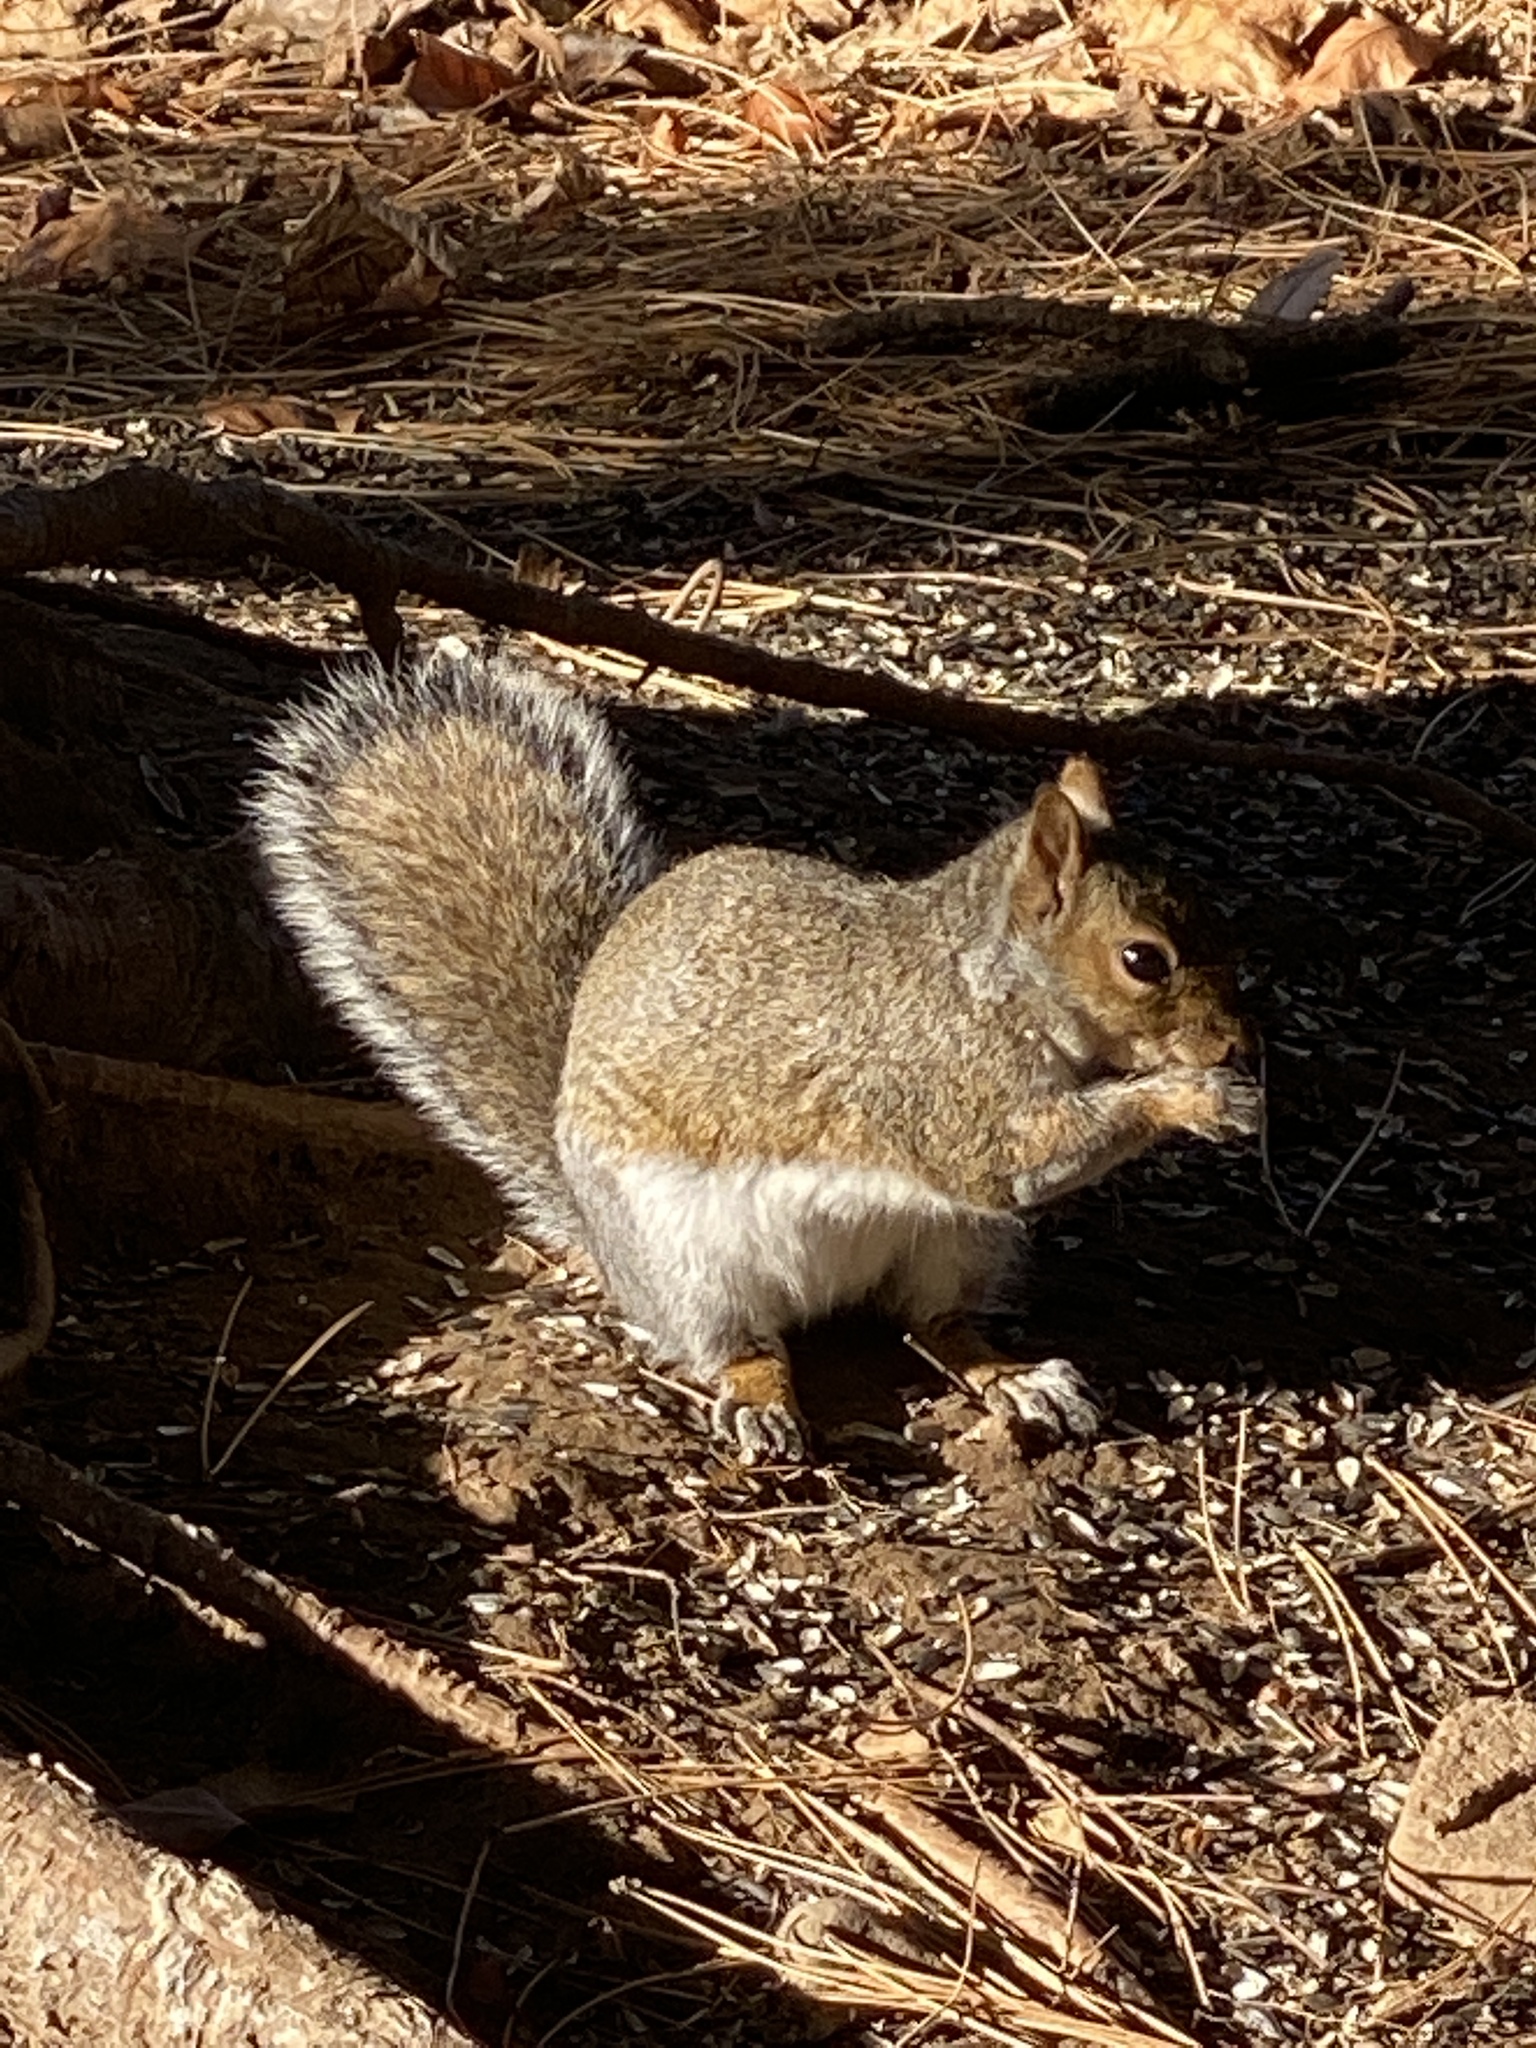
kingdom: Animalia
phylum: Chordata
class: Mammalia
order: Rodentia
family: Sciuridae
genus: Sciurus
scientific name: Sciurus carolinensis
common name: Eastern gray squirrel
